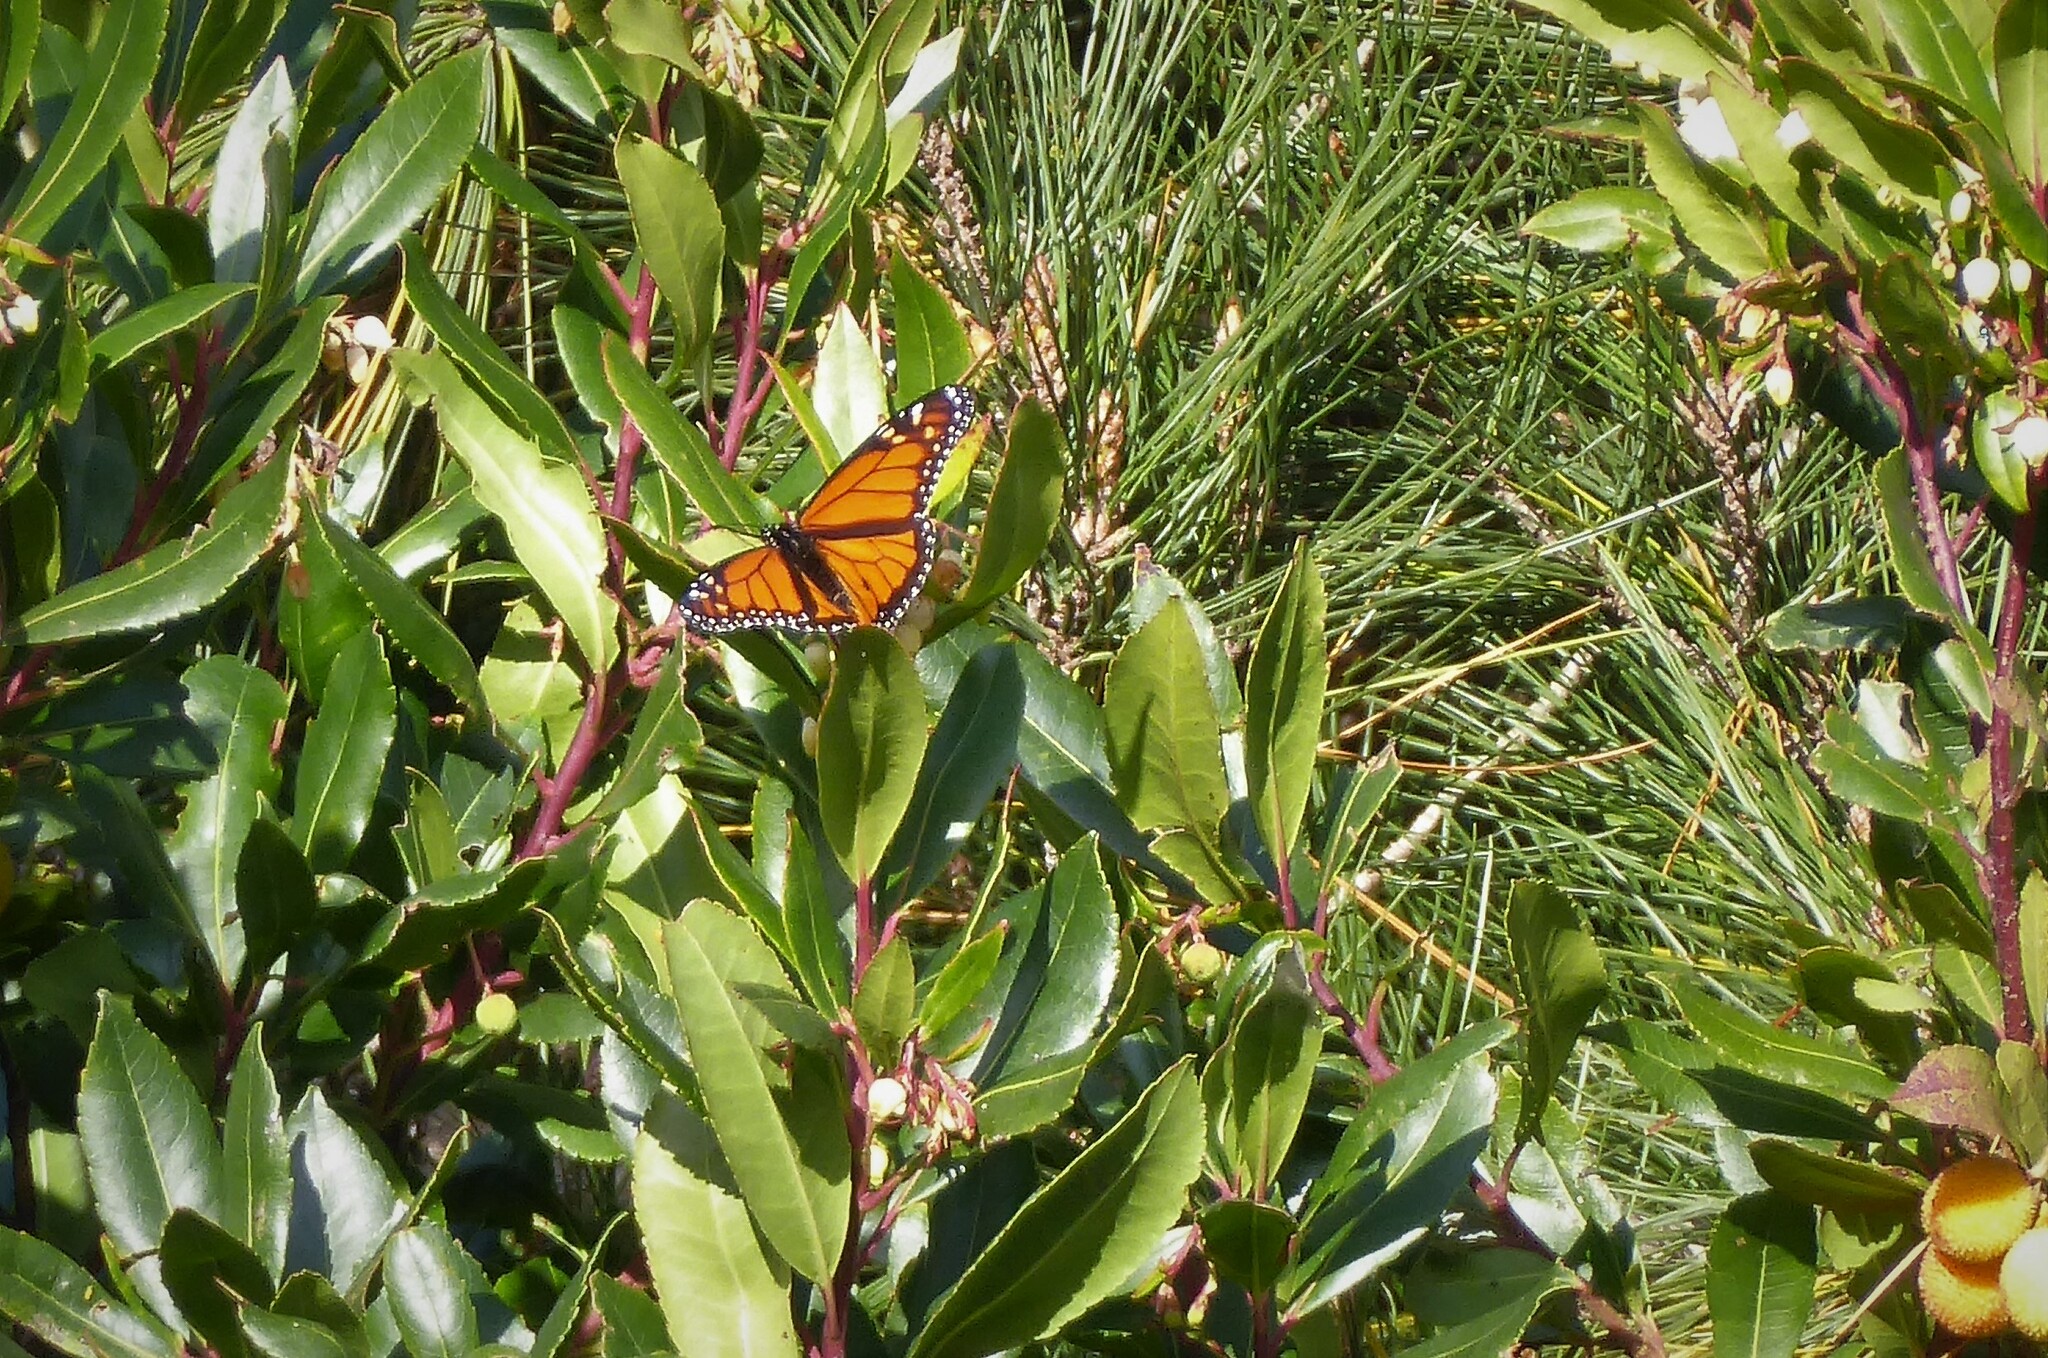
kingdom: Animalia
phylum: Arthropoda
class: Insecta
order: Lepidoptera
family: Nymphalidae
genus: Danaus
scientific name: Danaus plexippus
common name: Monarch
